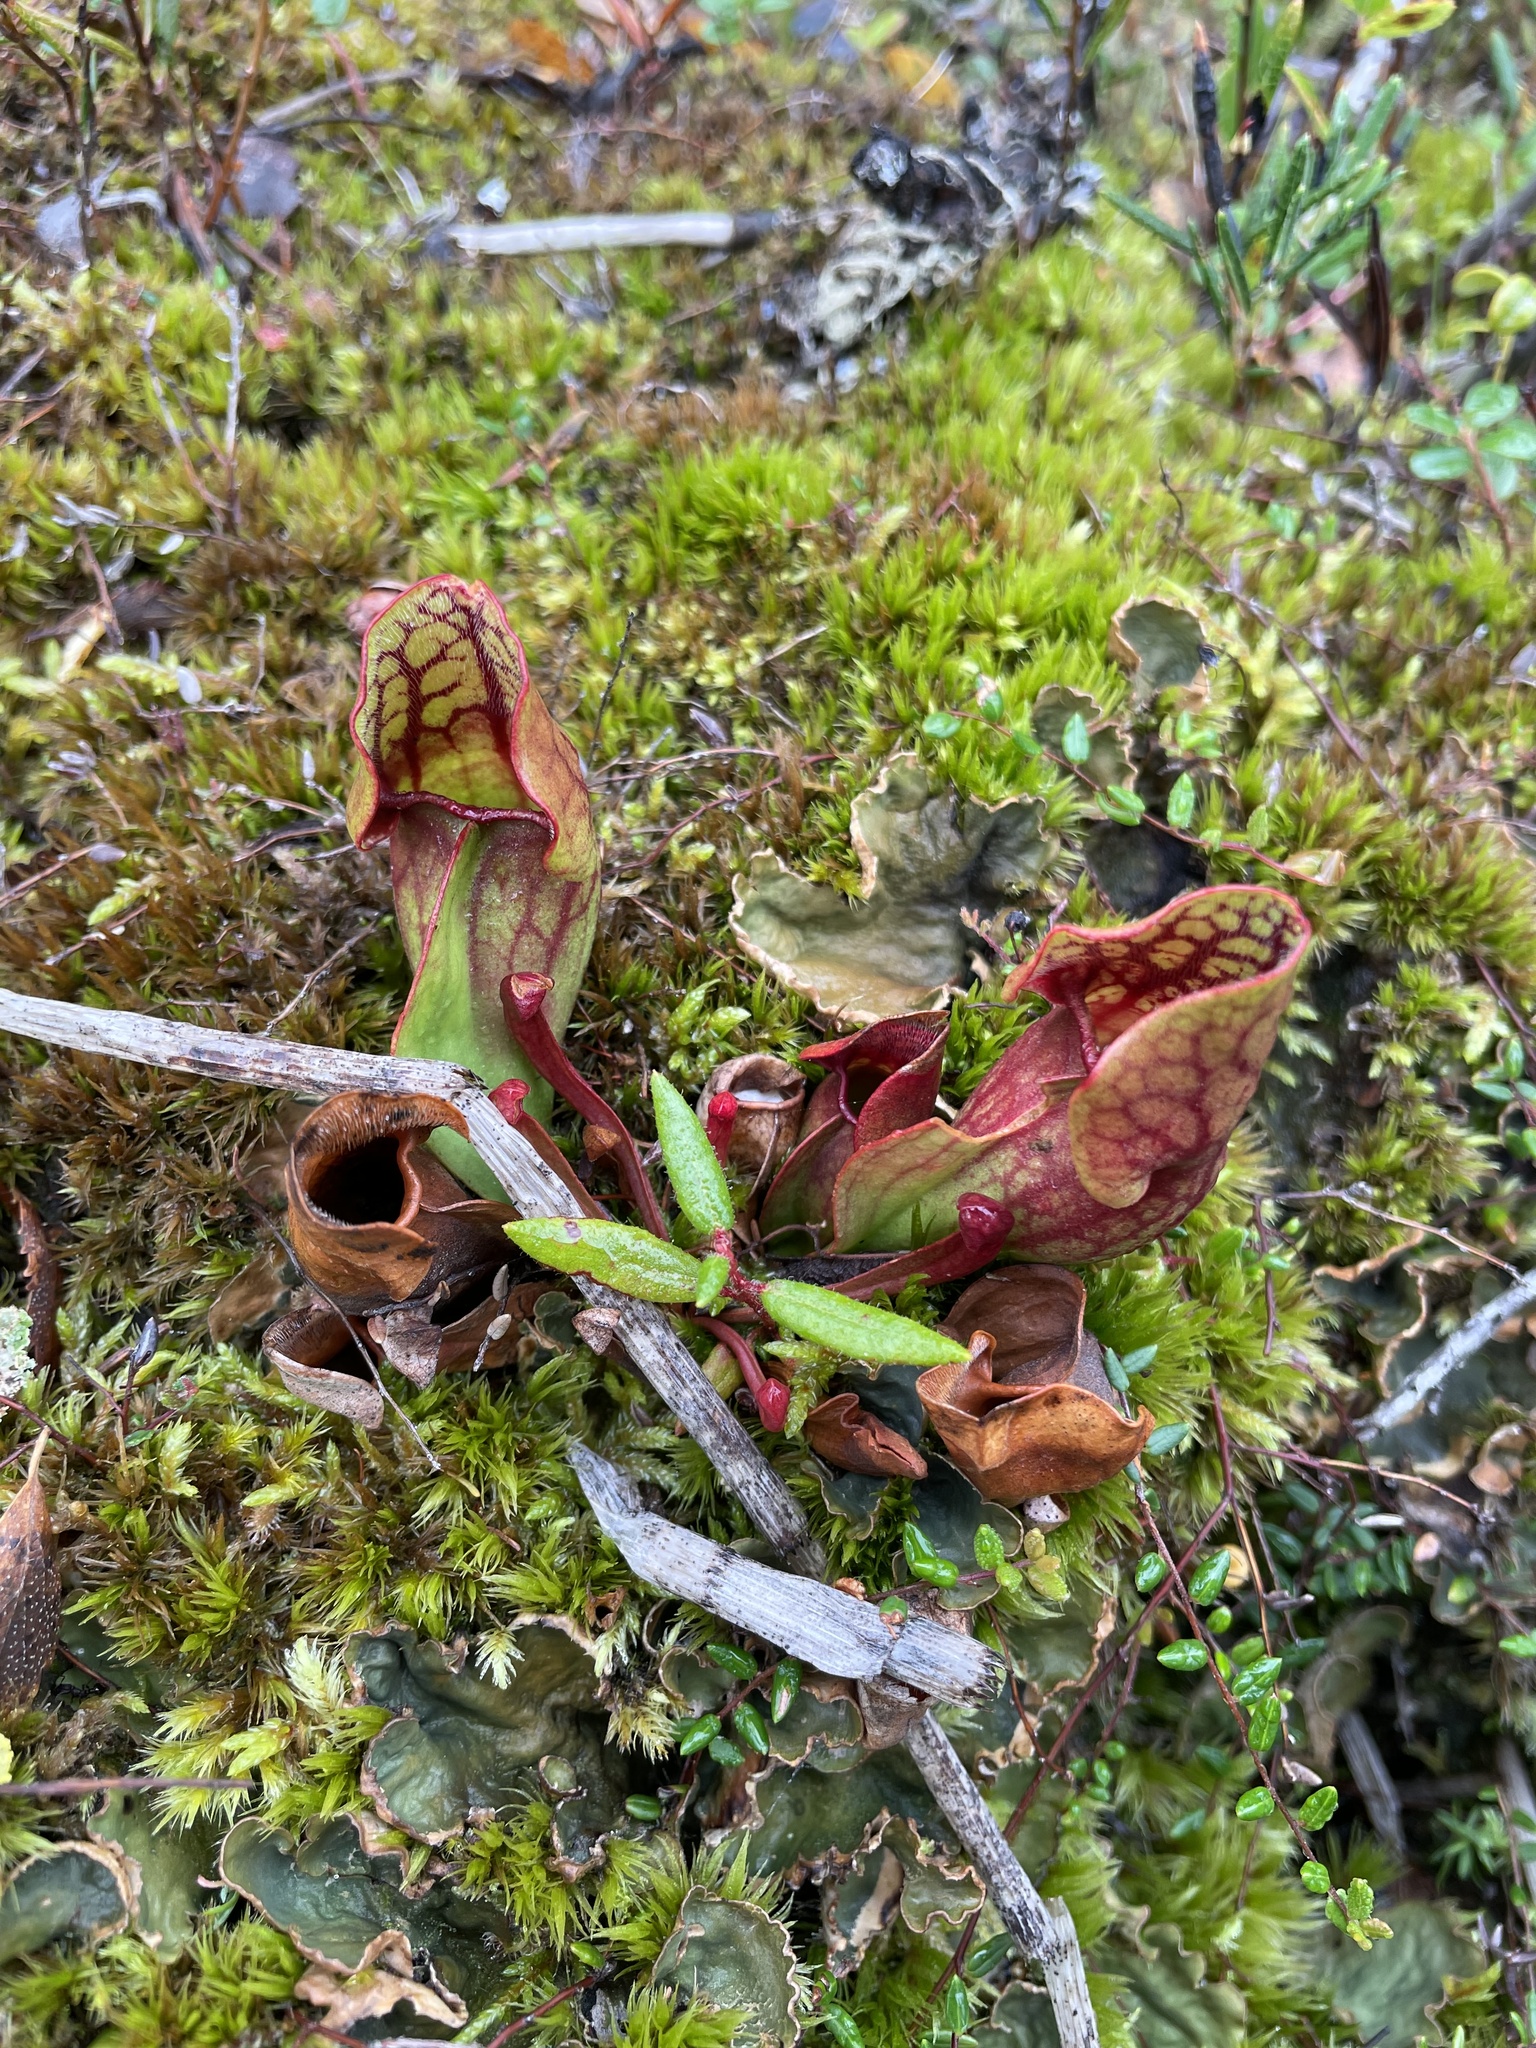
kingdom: Plantae
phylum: Tracheophyta
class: Magnoliopsida
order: Ericales
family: Sarraceniaceae
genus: Sarracenia
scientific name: Sarracenia purpurea
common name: Pitcherplant
